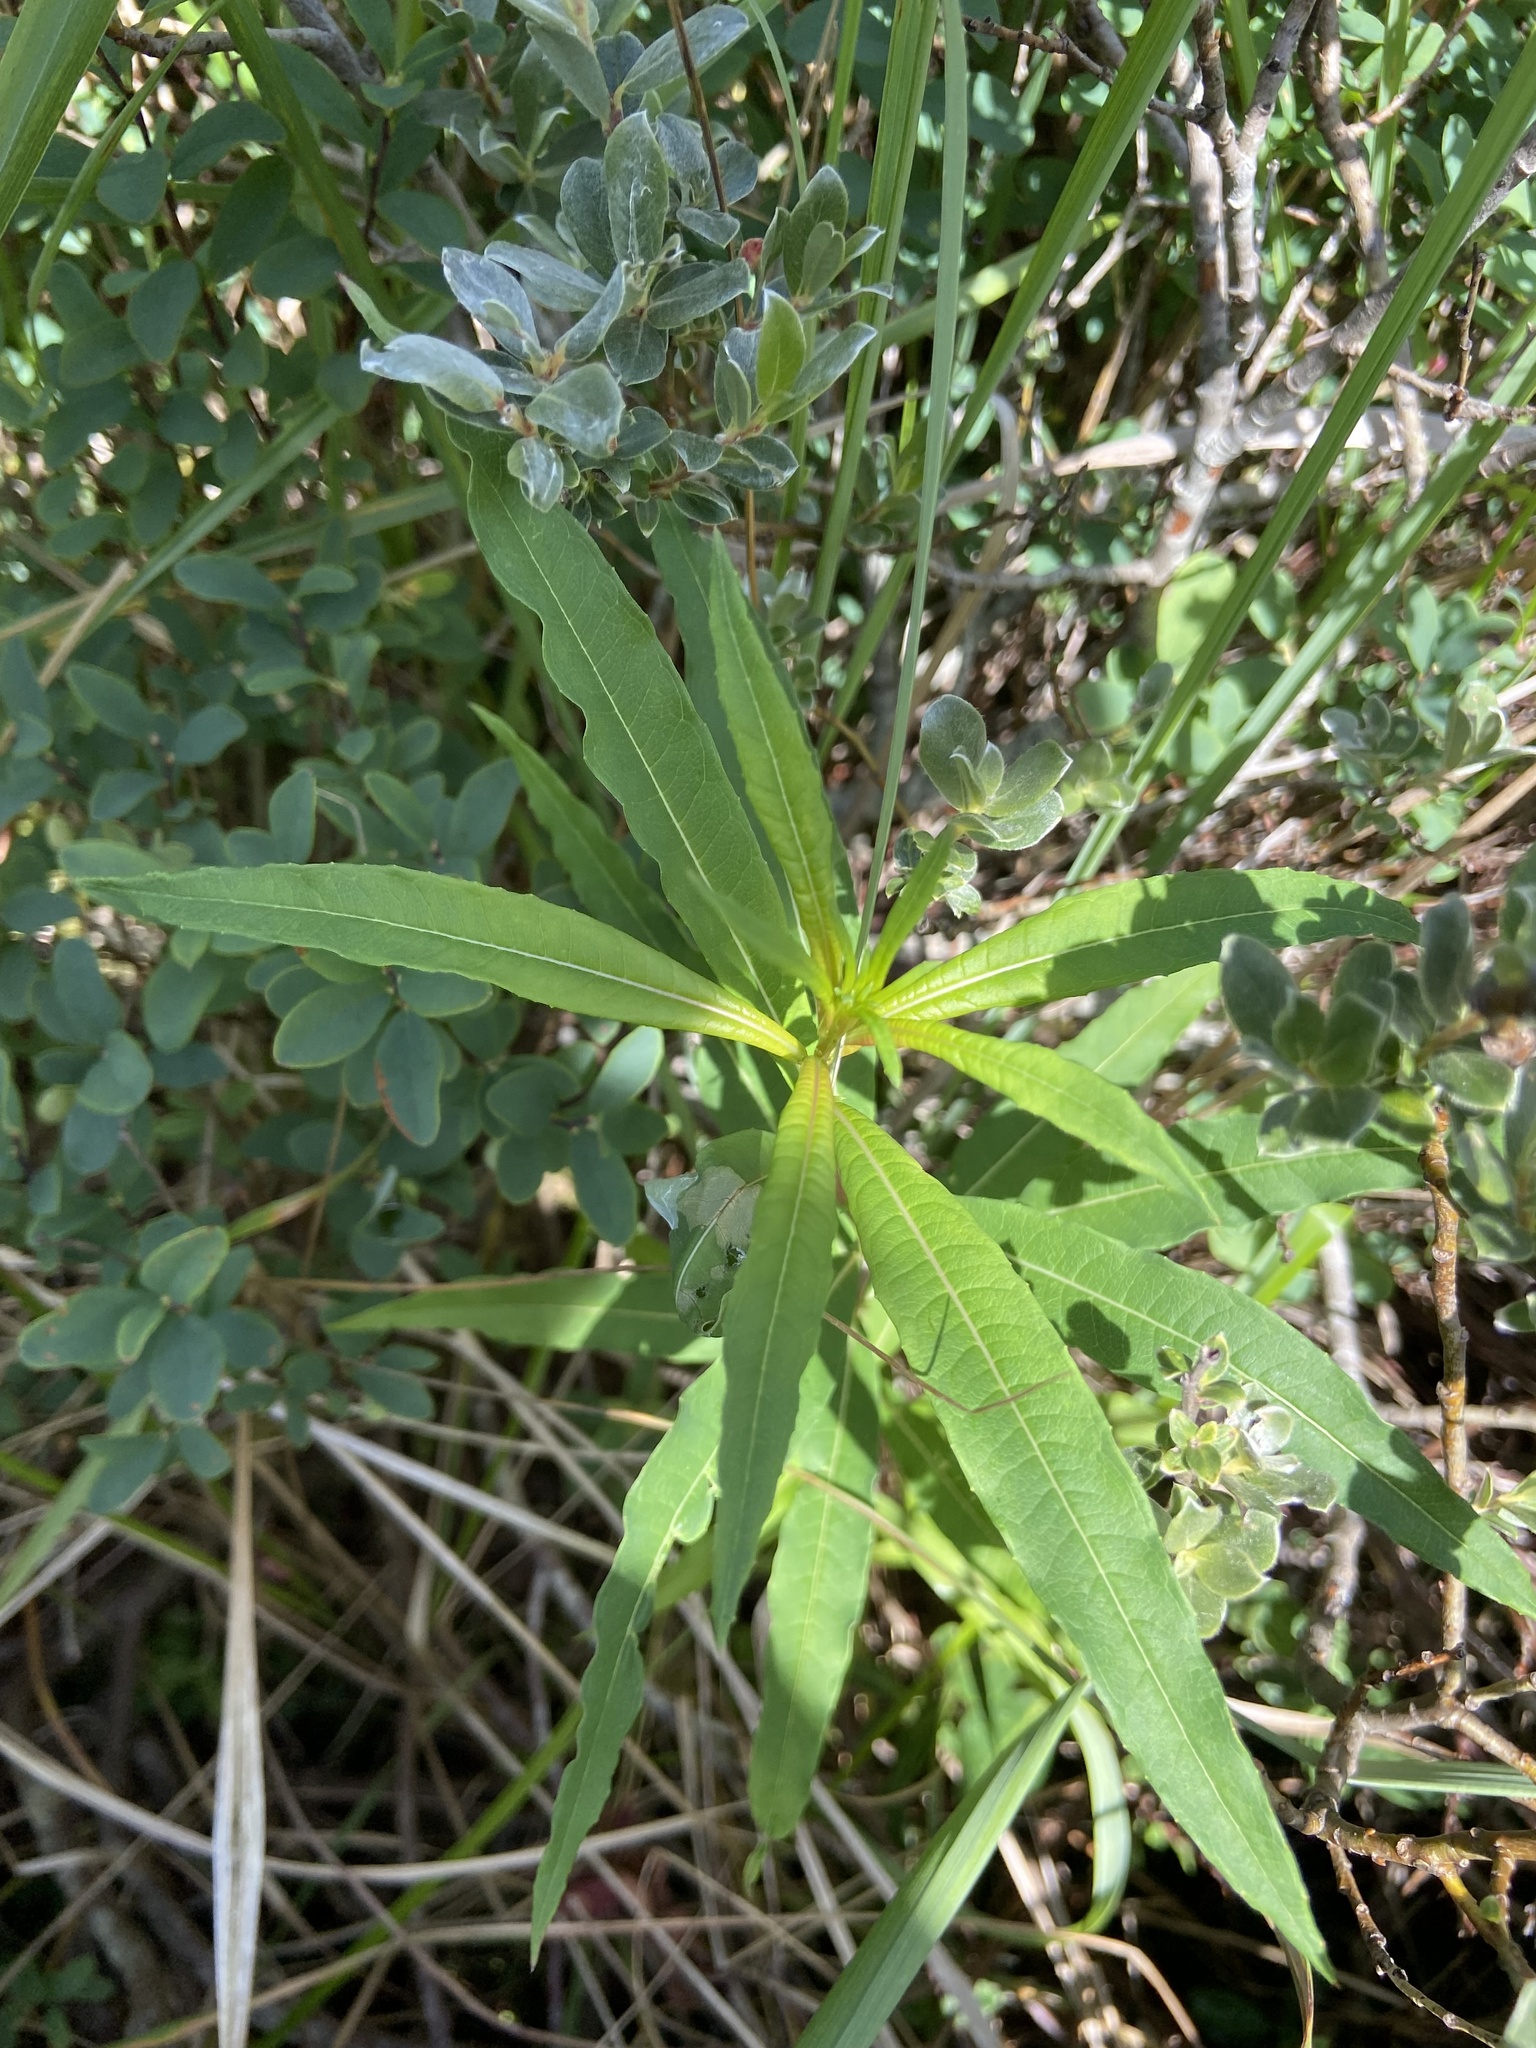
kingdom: Plantae
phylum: Tracheophyta
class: Magnoliopsida
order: Myrtales
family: Onagraceae
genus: Chamaenerion
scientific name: Chamaenerion angustifolium
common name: Fireweed
